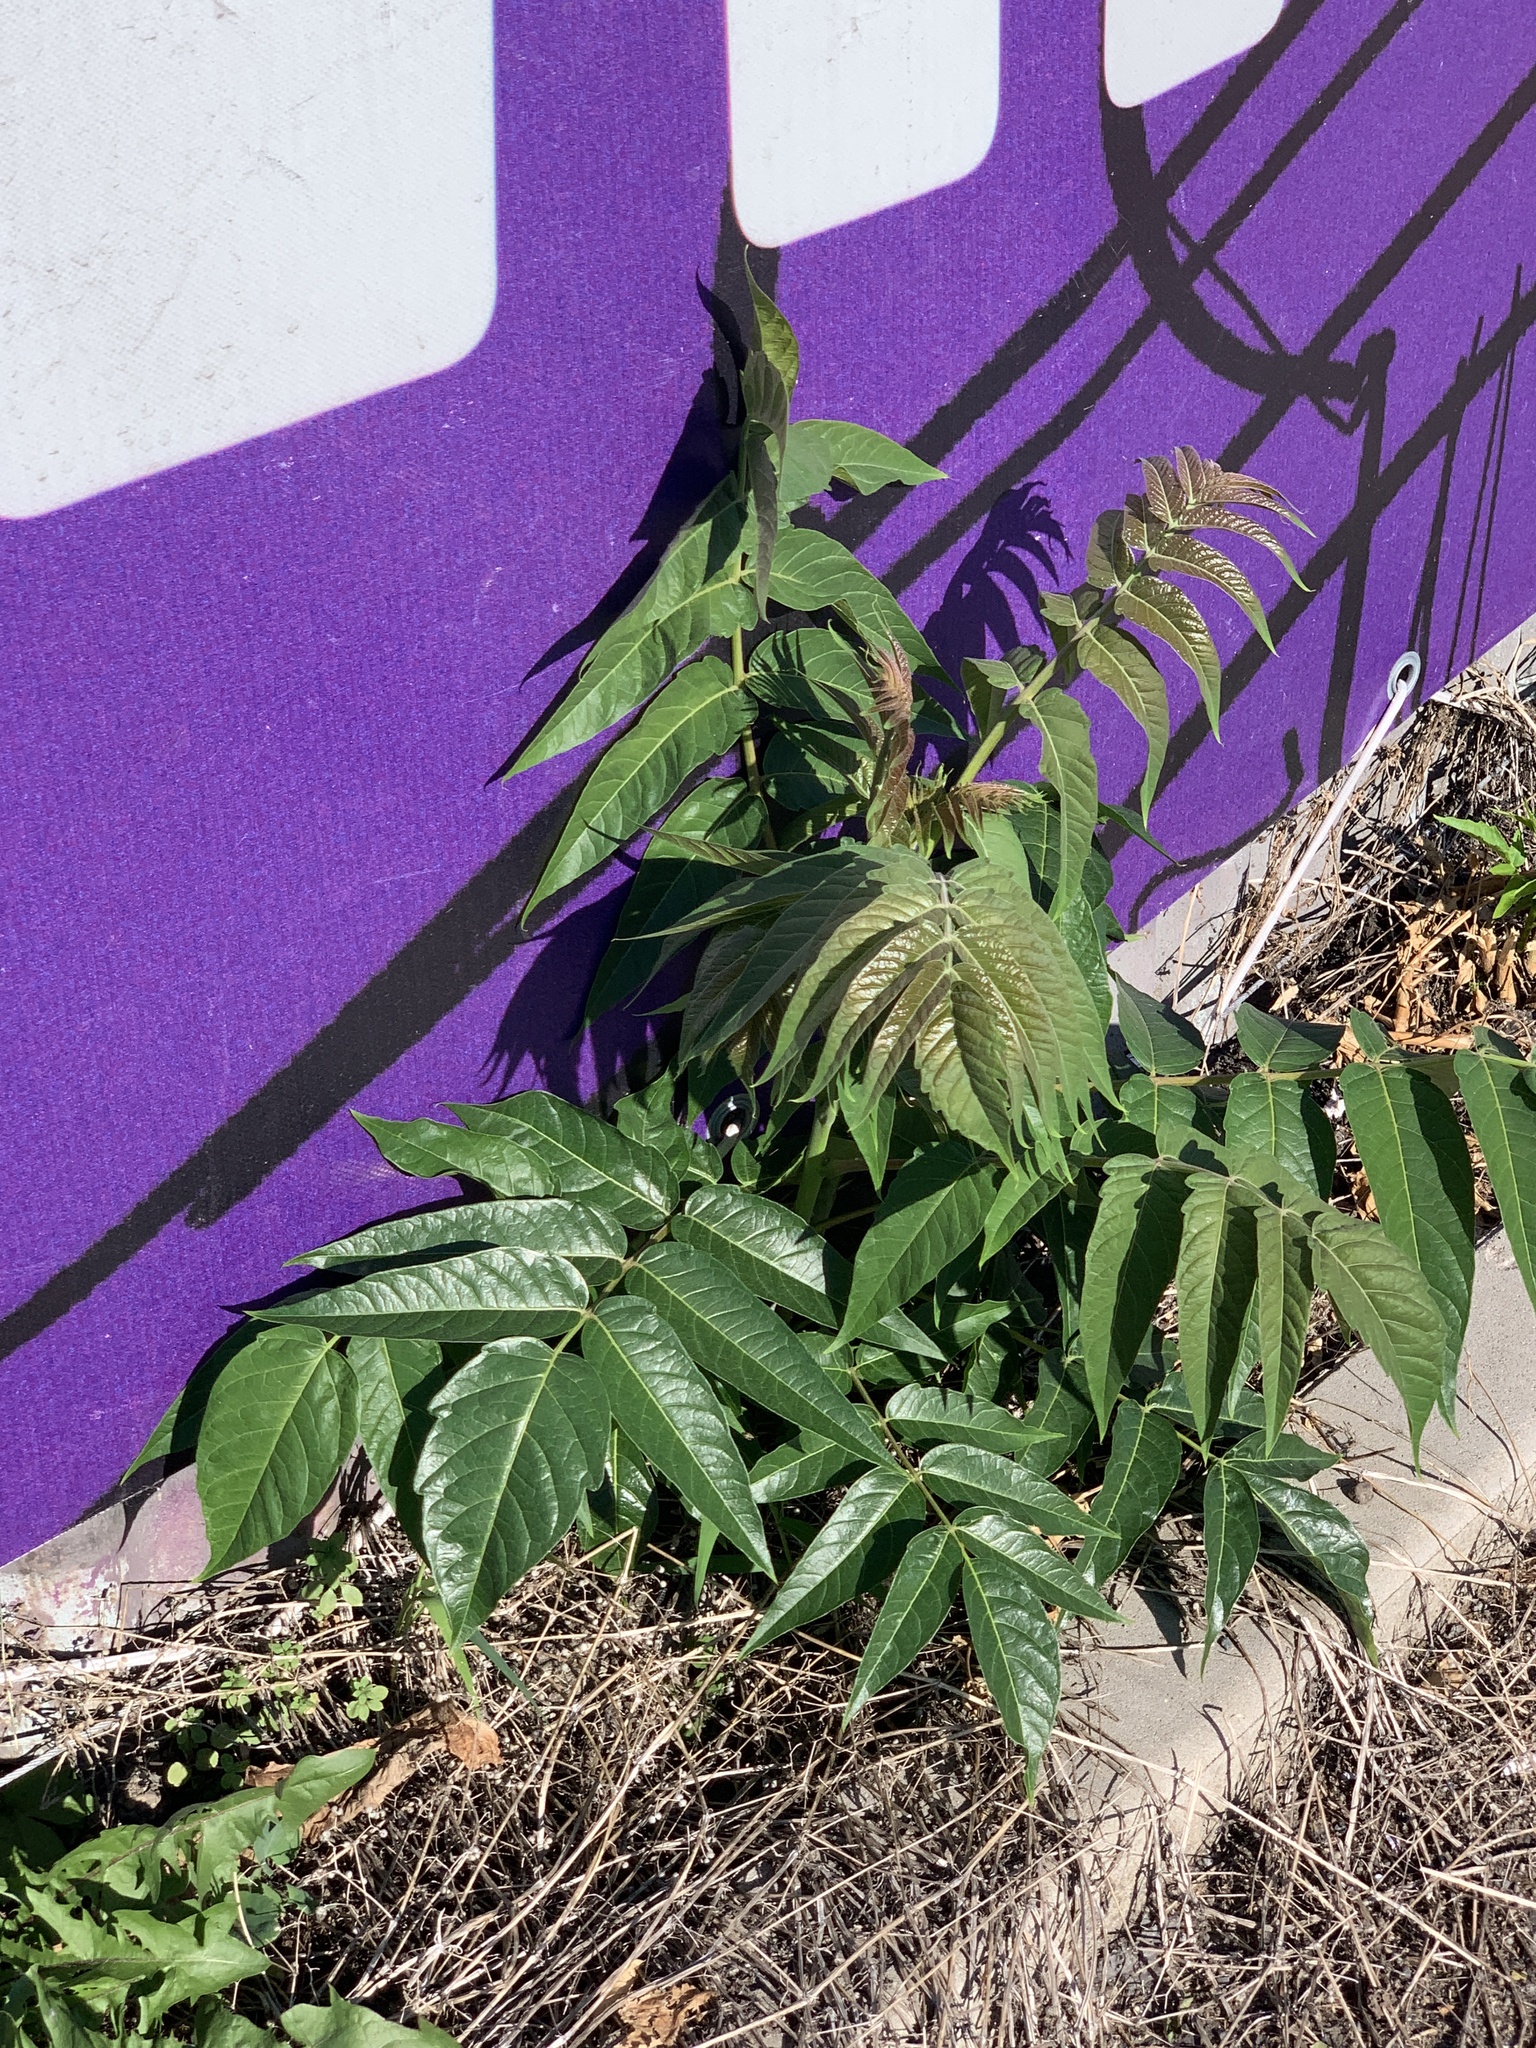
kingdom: Plantae
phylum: Tracheophyta
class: Magnoliopsida
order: Sapindales
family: Simaroubaceae
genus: Ailanthus
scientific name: Ailanthus altissima
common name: Tree-of-heaven
